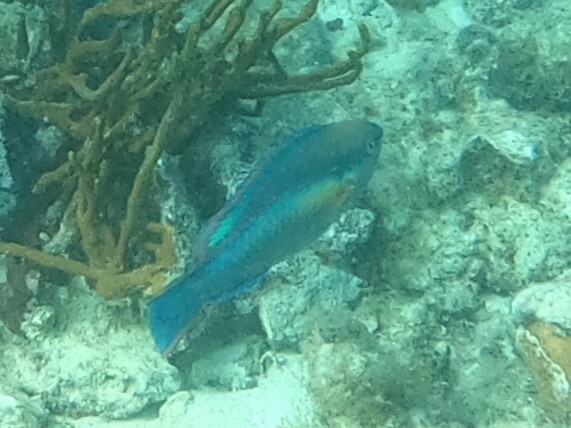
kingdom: Animalia
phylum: Chordata
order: Perciformes
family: Scaridae
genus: Scarus
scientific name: Scarus taeniopterus
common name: Princess parrotfish
